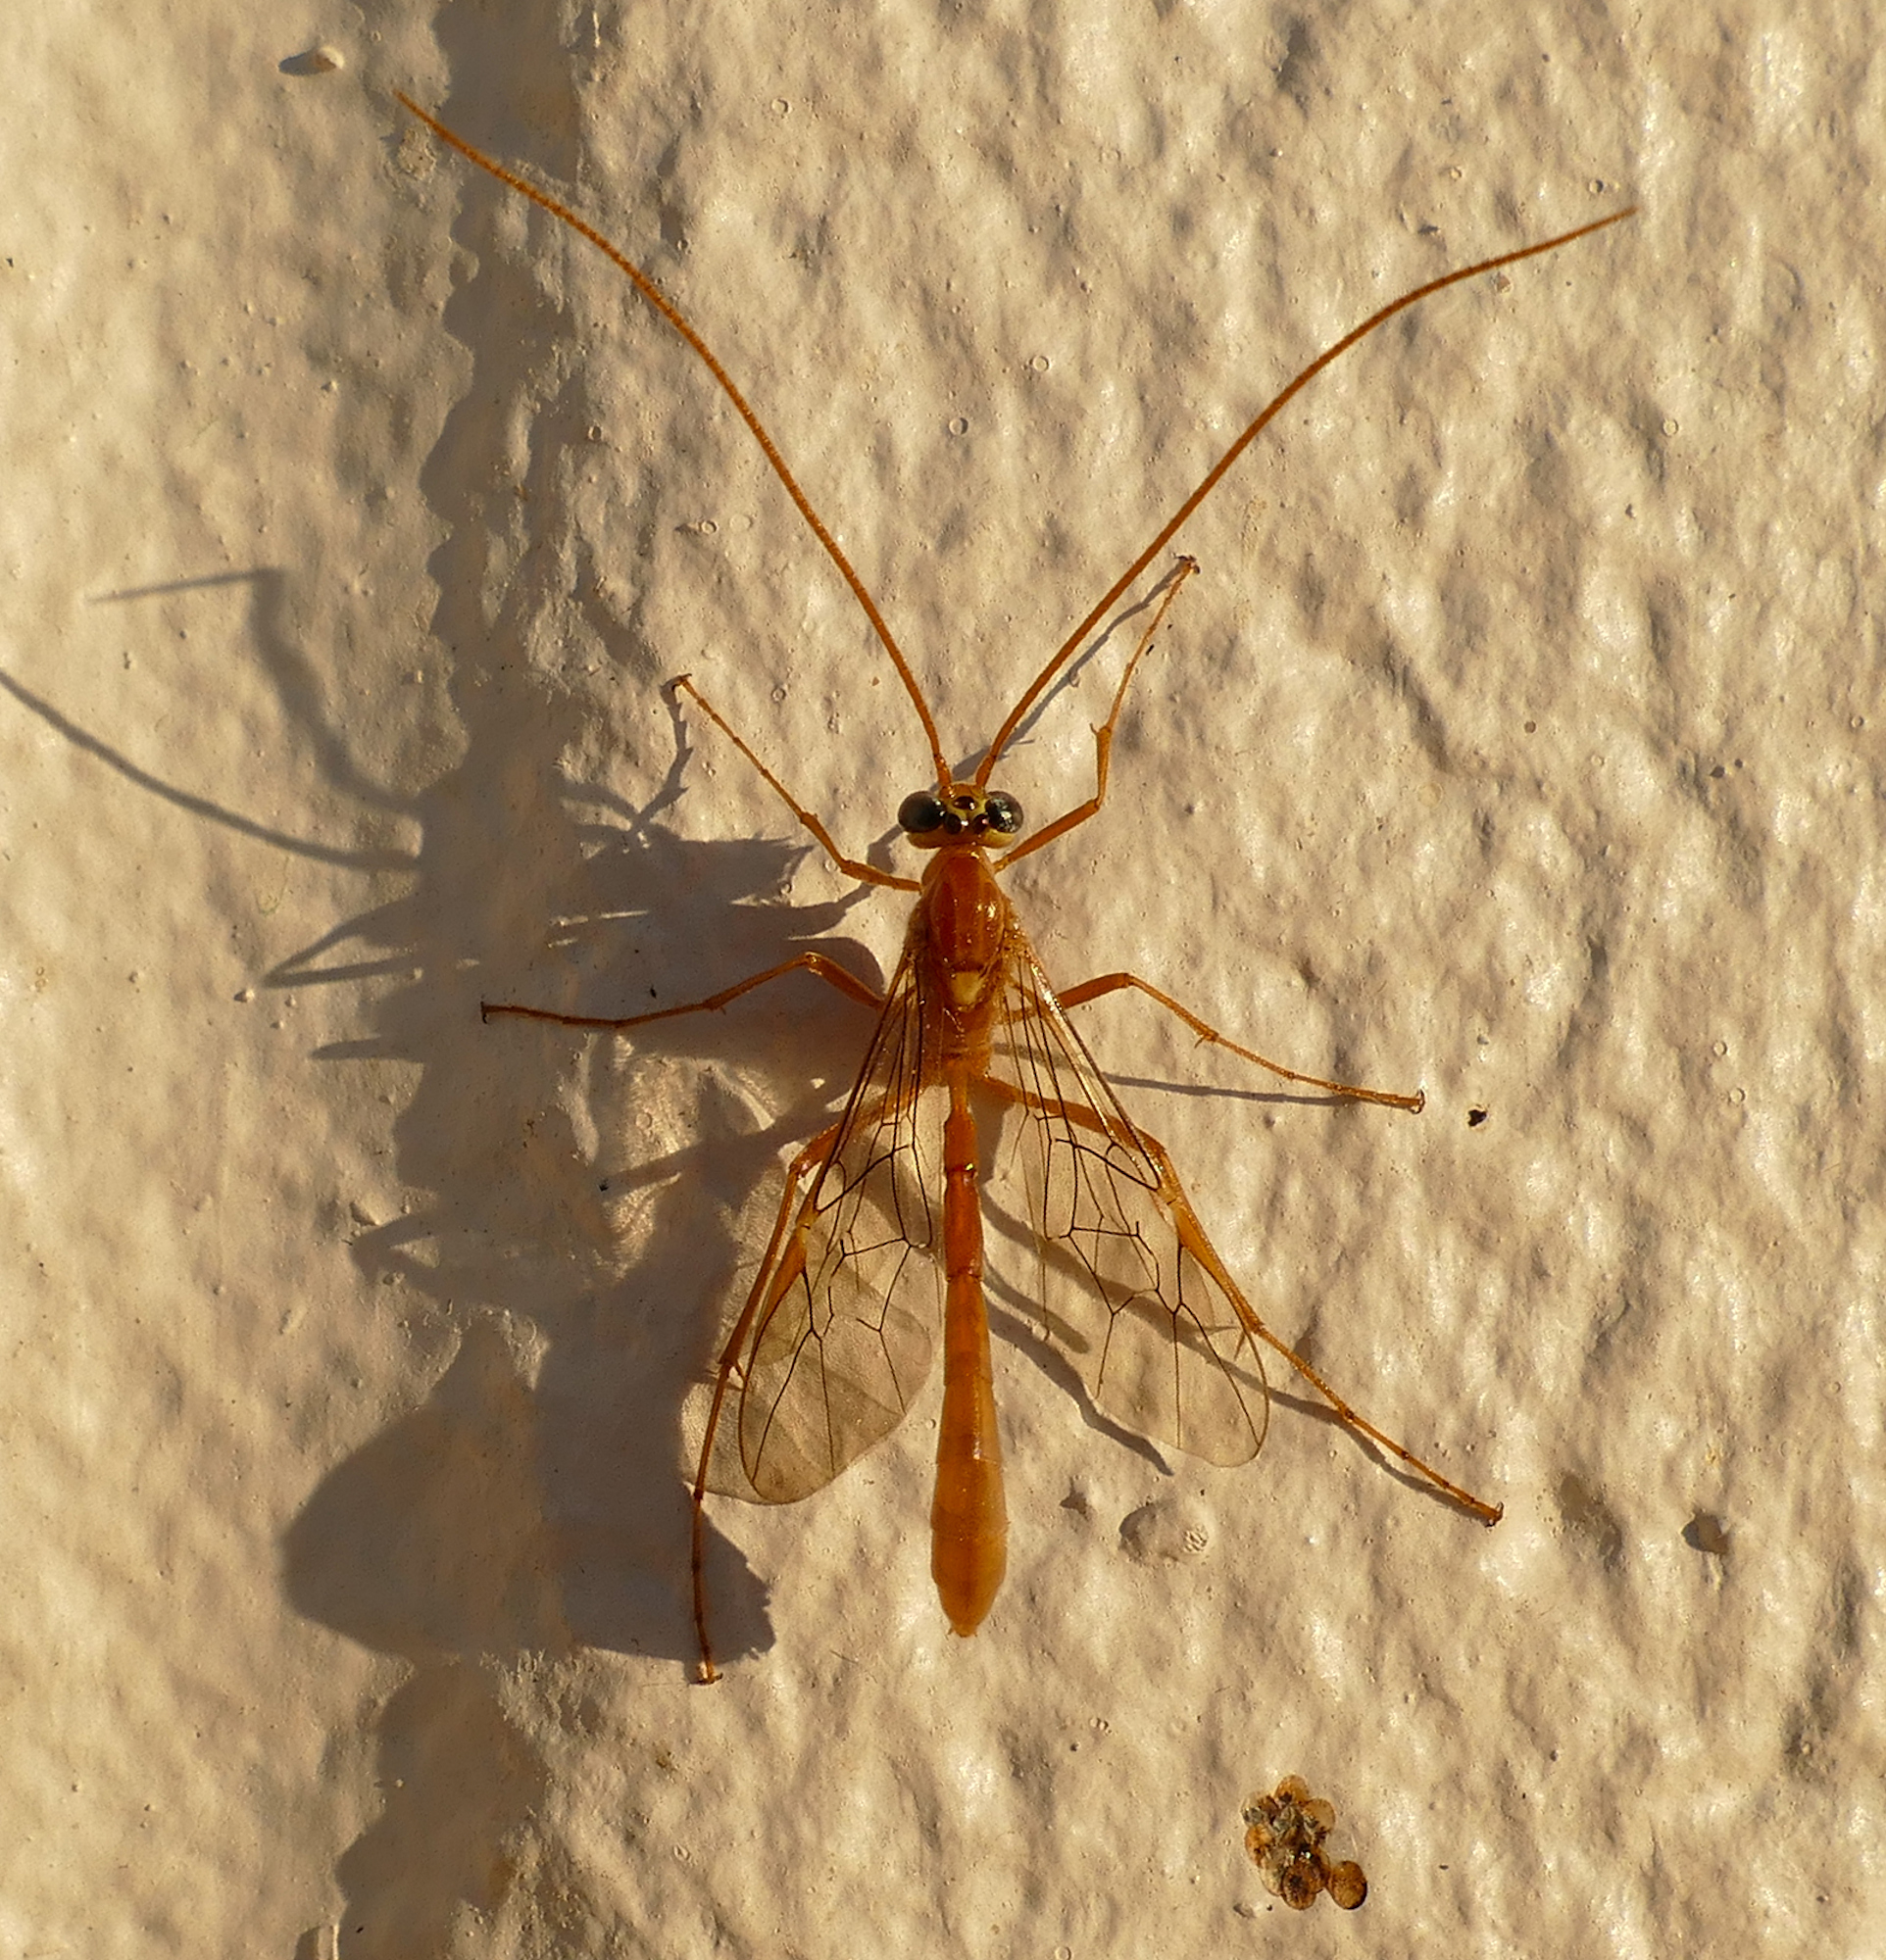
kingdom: Animalia
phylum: Arthropoda
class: Insecta
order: Hymenoptera
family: Ichneumonidae
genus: Ophion
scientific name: Ophion
